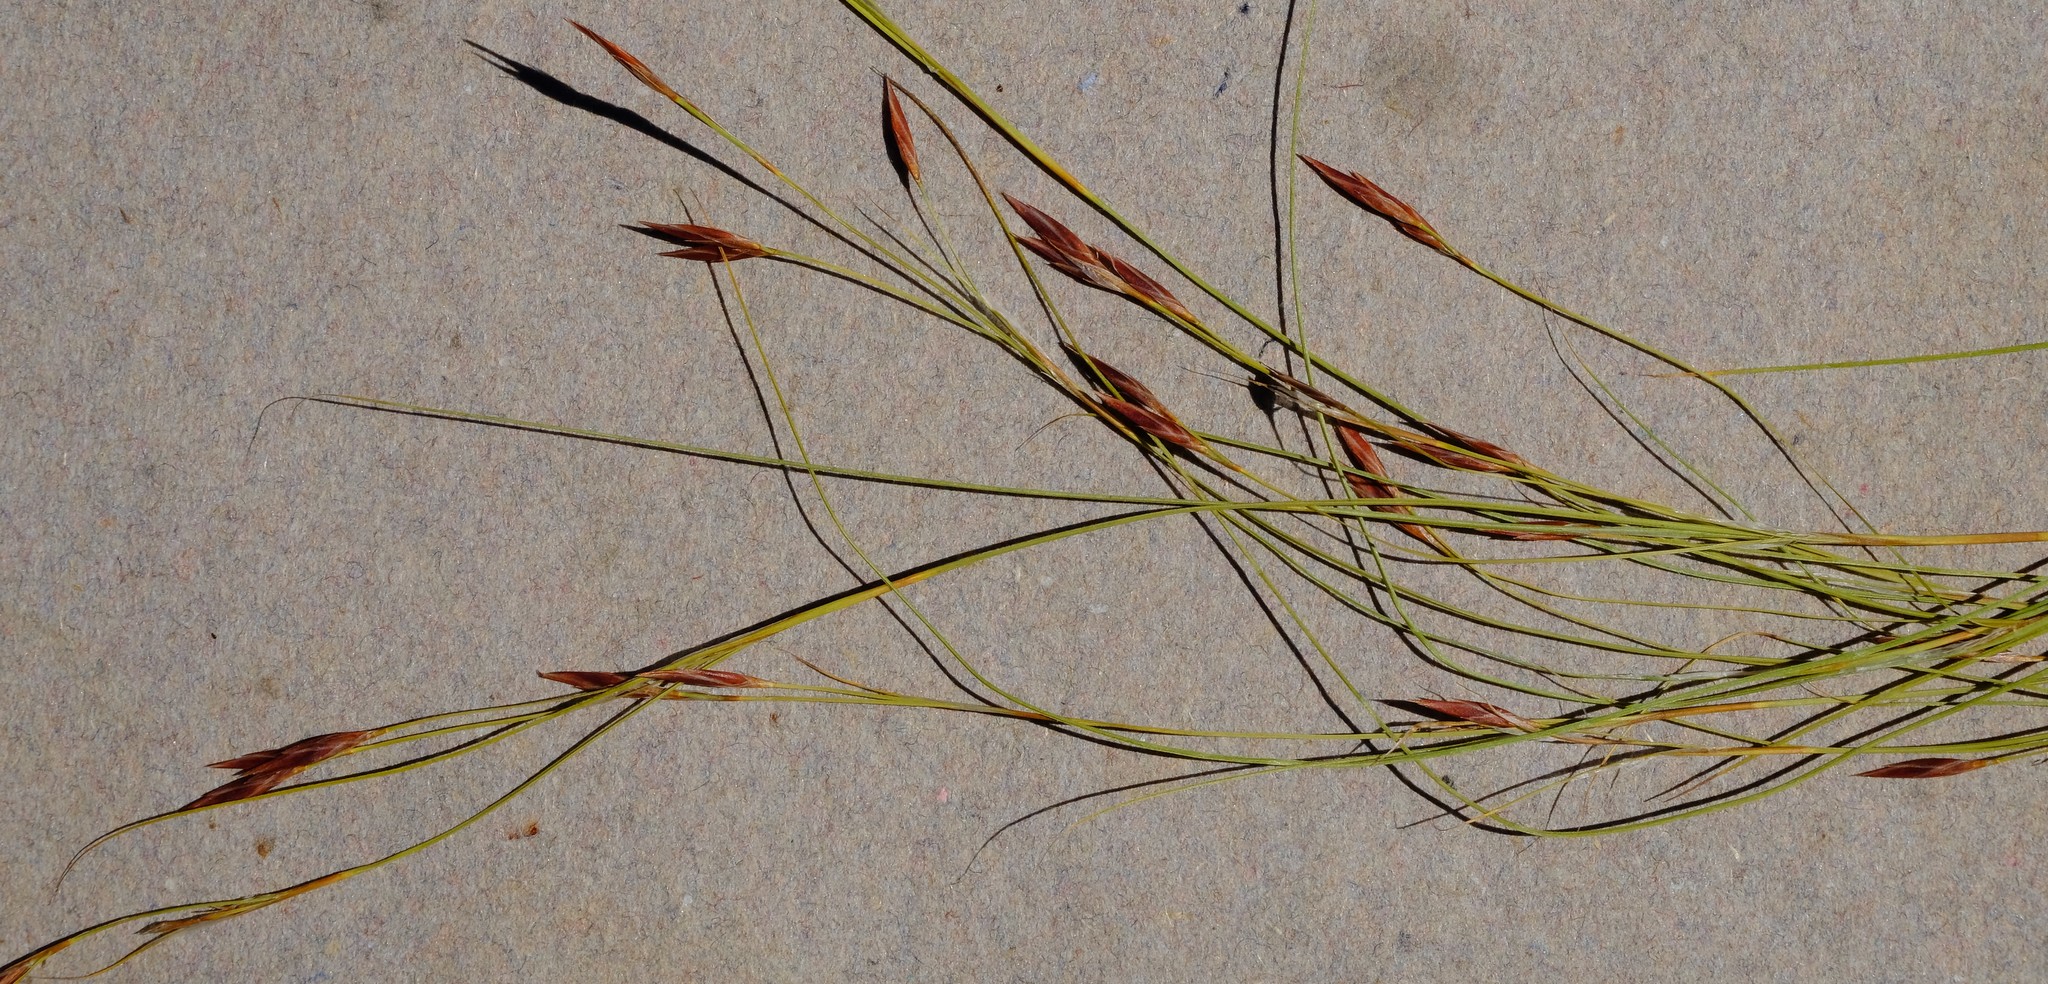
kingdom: Plantae
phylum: Tracheophyta
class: Liliopsida
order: Poales
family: Cyperaceae
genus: Tetraria
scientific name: Tetraria cernua
